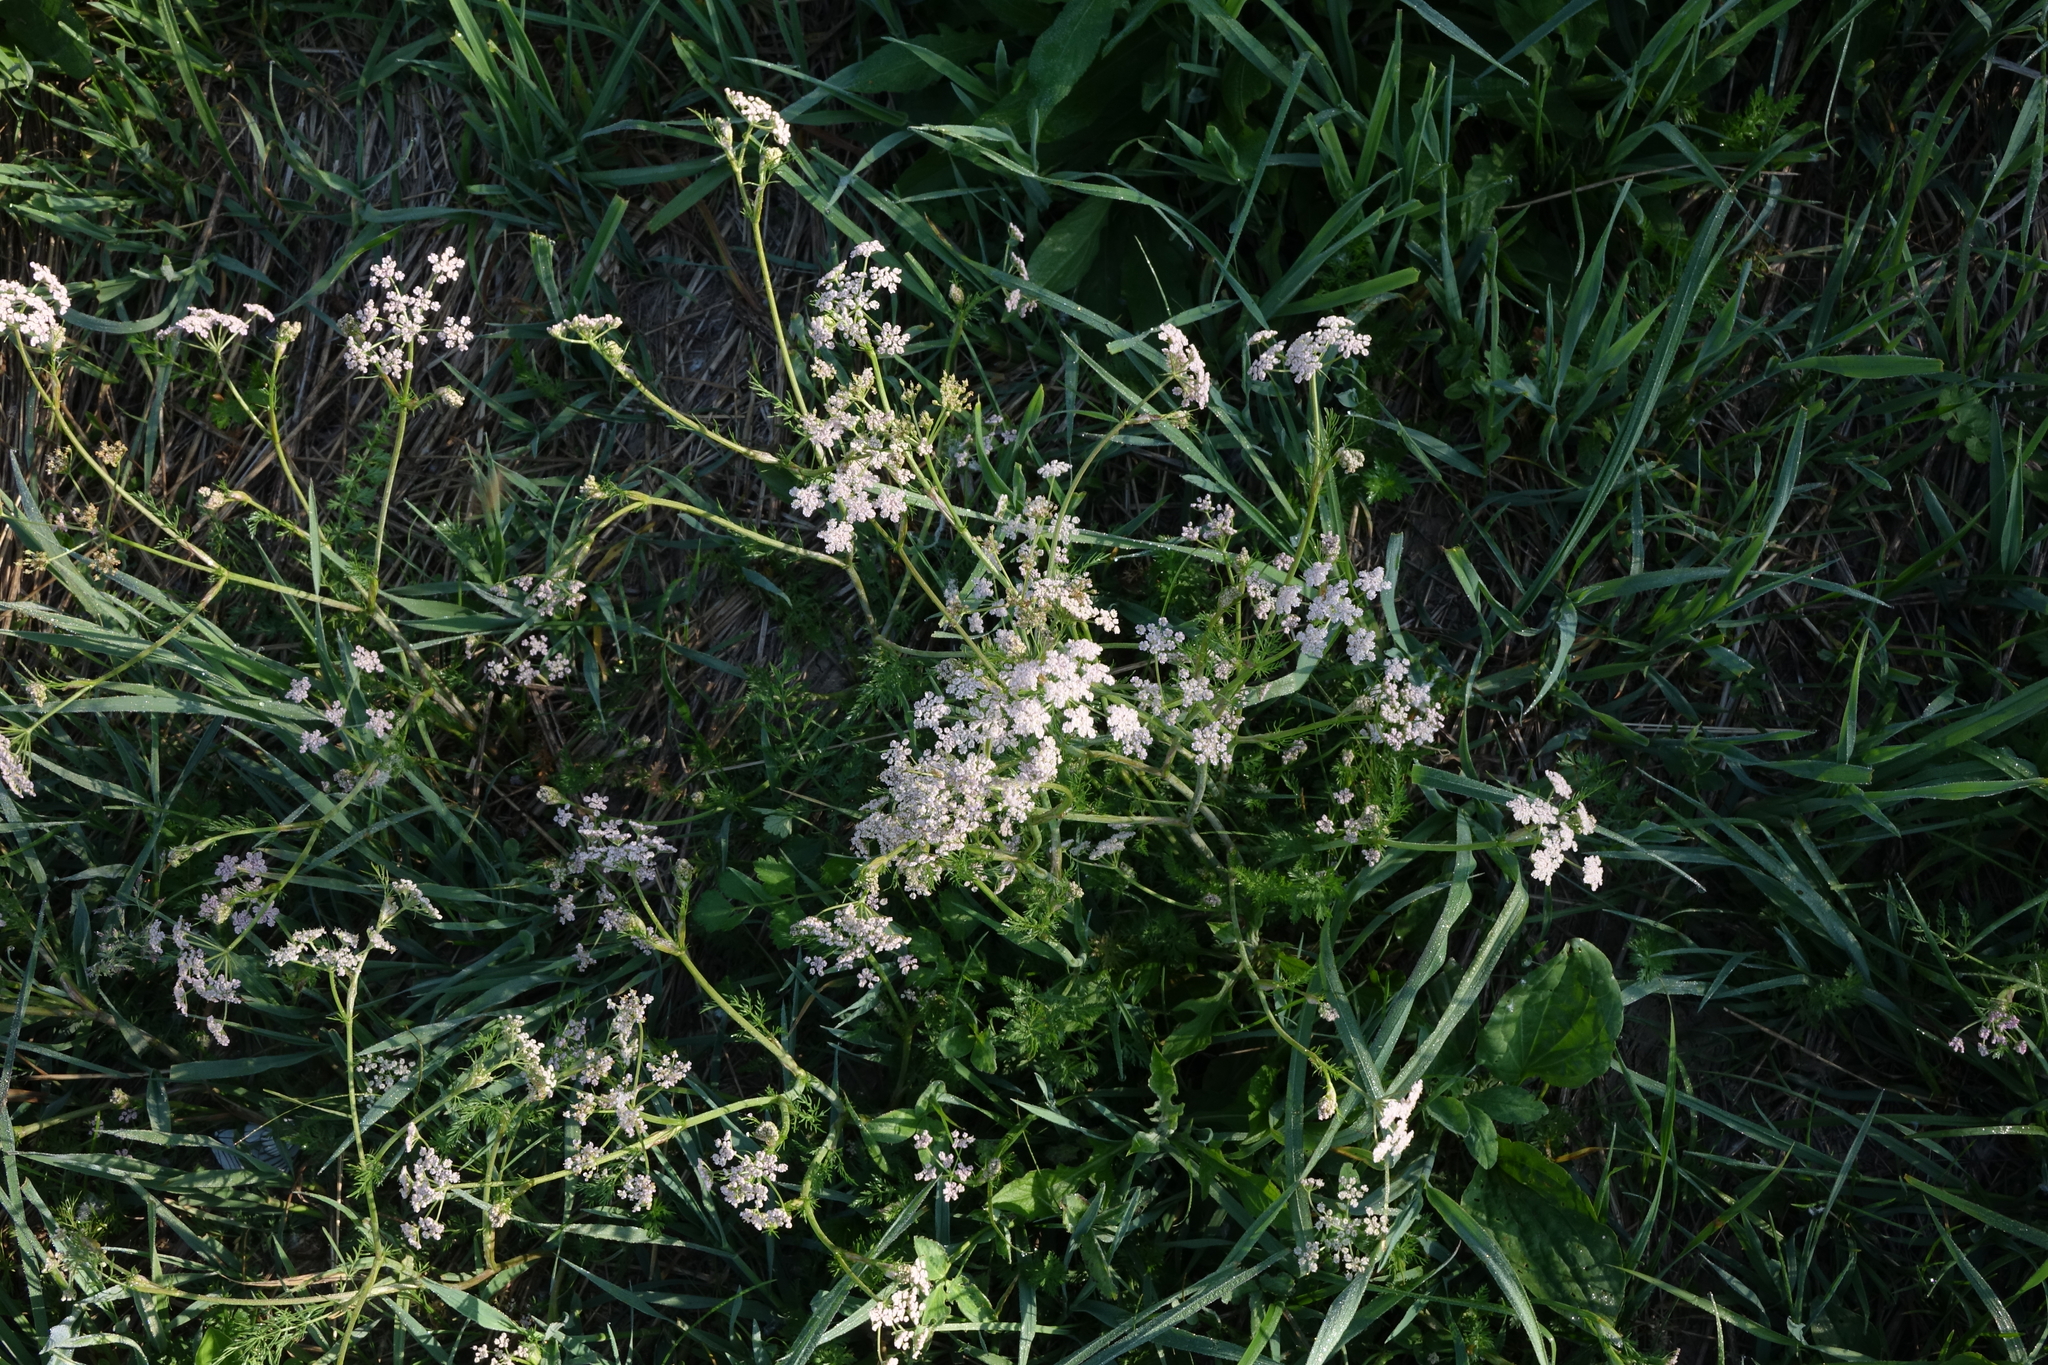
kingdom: Plantae
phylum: Tracheophyta
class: Magnoliopsida
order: Apiales
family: Apiaceae
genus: Carum
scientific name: Carum carvi
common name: Caraway
